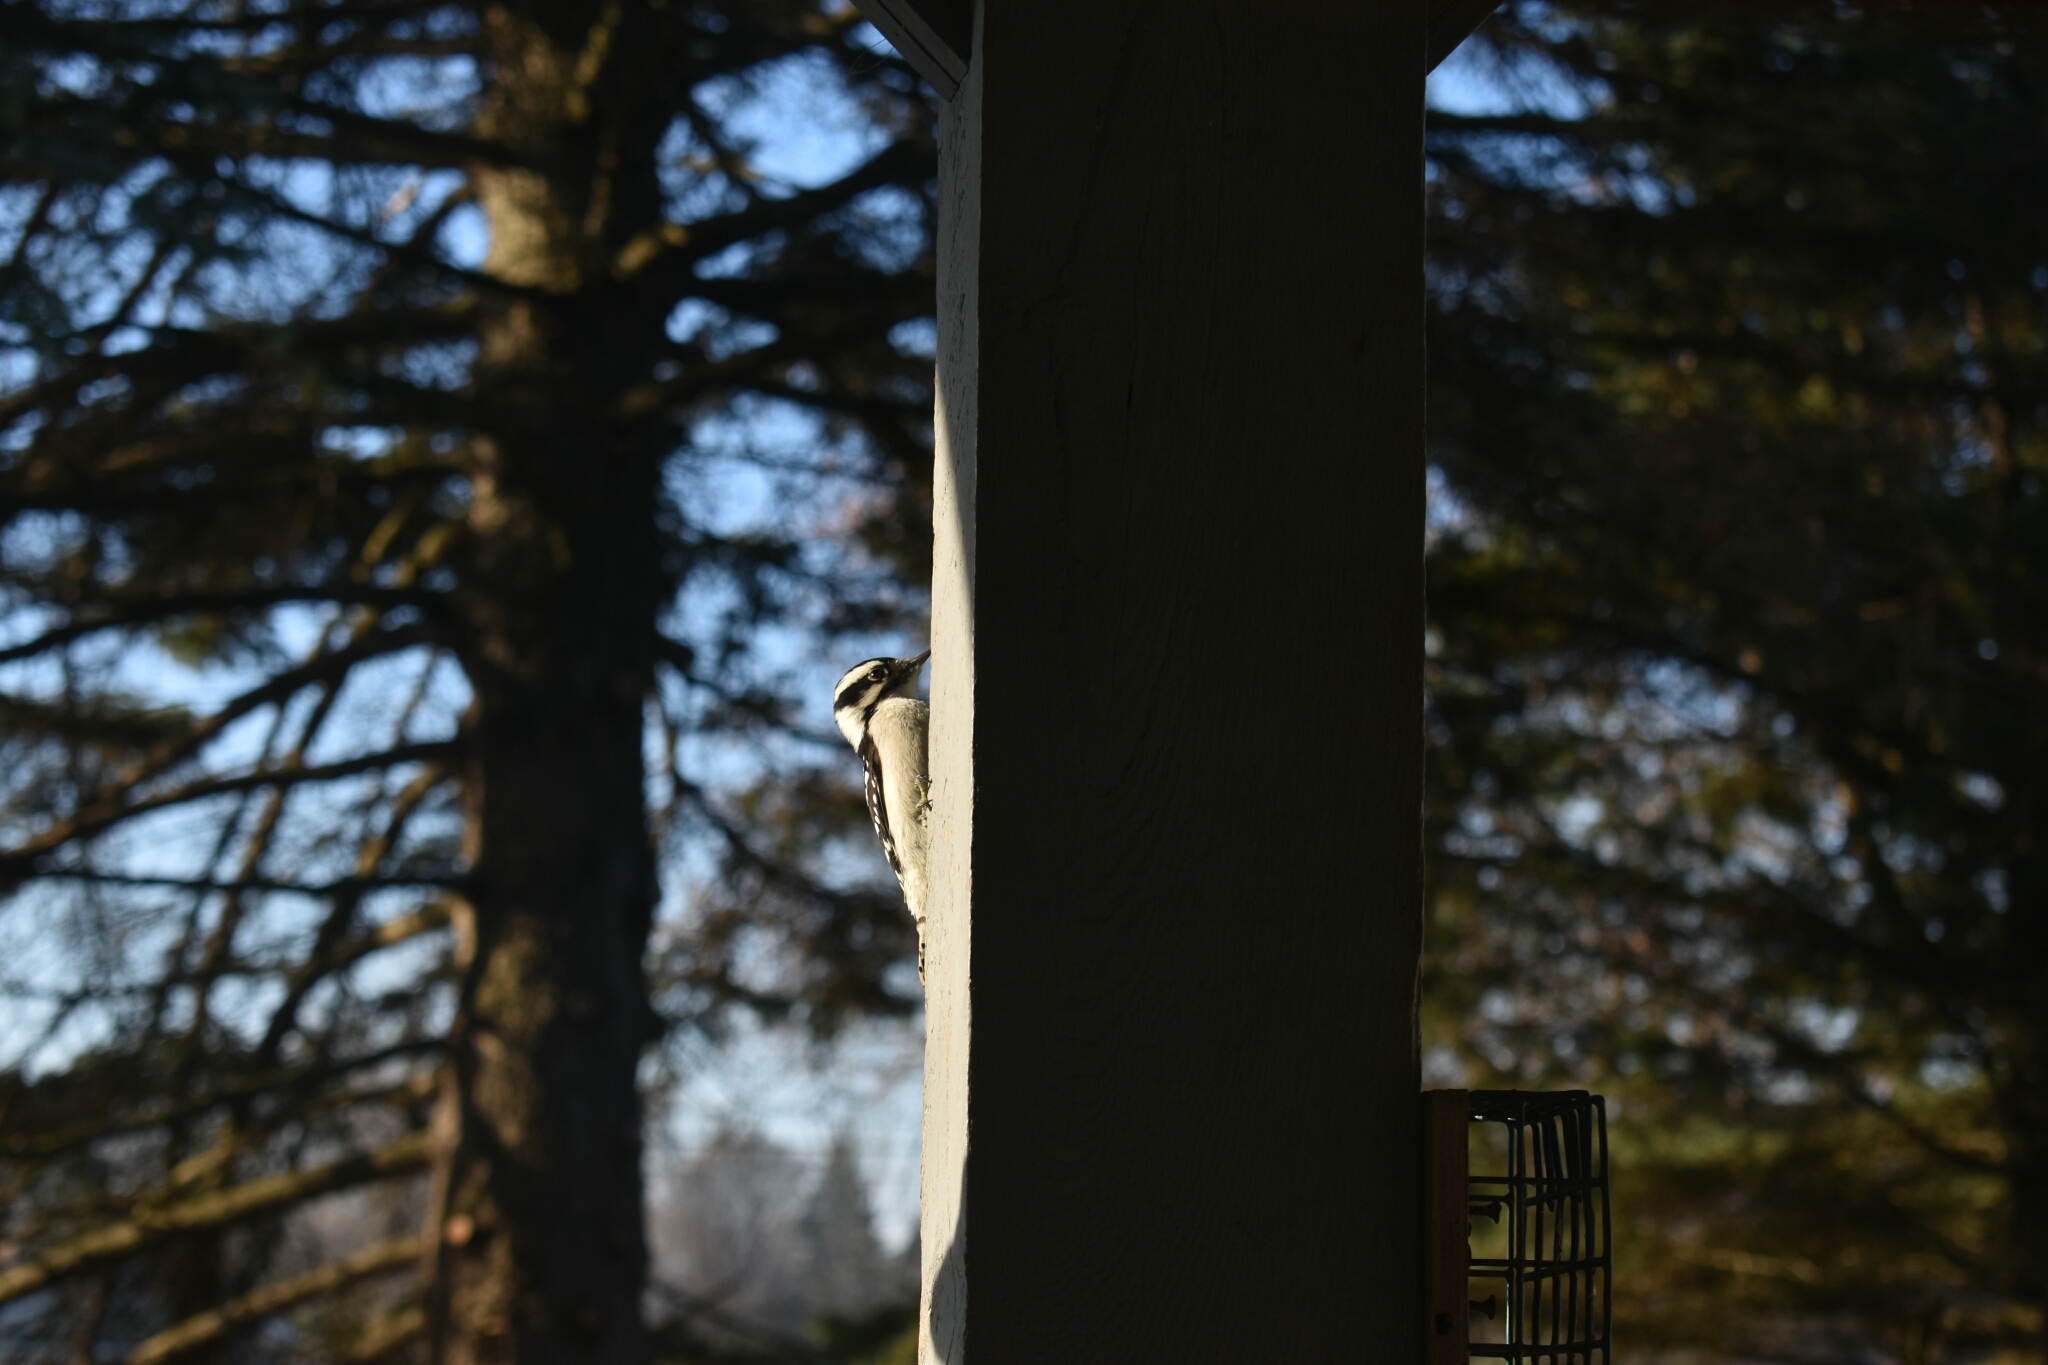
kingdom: Animalia
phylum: Chordata
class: Aves
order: Piciformes
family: Picidae
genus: Dryobates
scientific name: Dryobates pubescens
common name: Downy woodpecker
